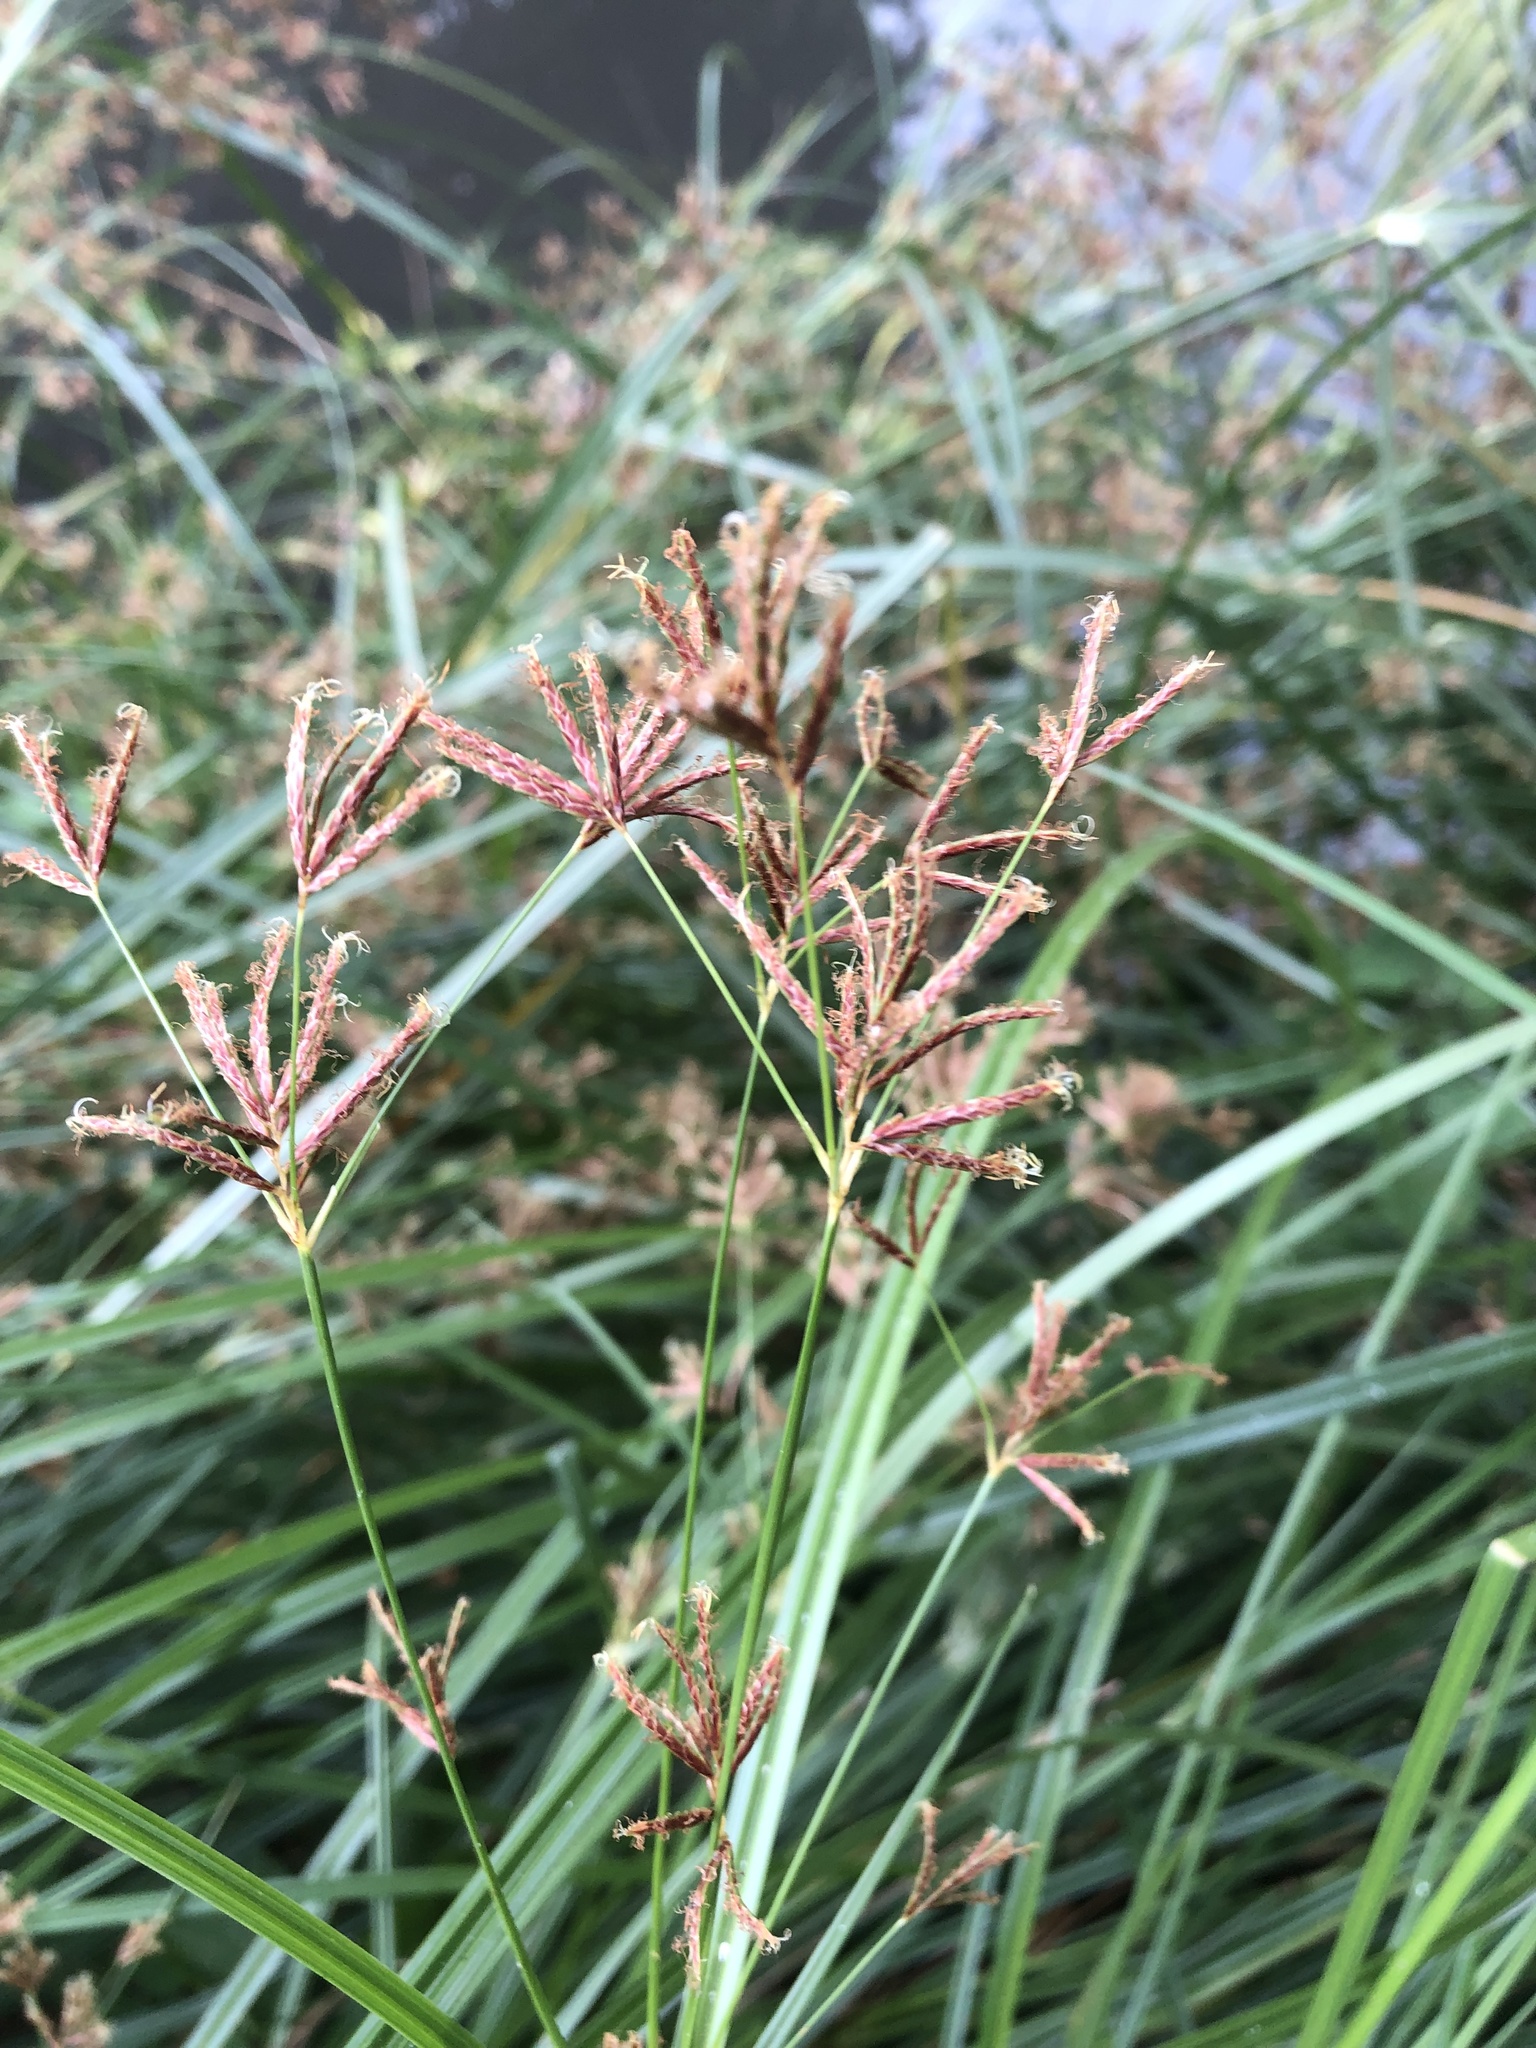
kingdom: Plantae
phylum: Tracheophyta
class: Liliopsida
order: Poales
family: Cyperaceae
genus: Cyperus
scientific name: Cyperus longus
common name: Galingale
